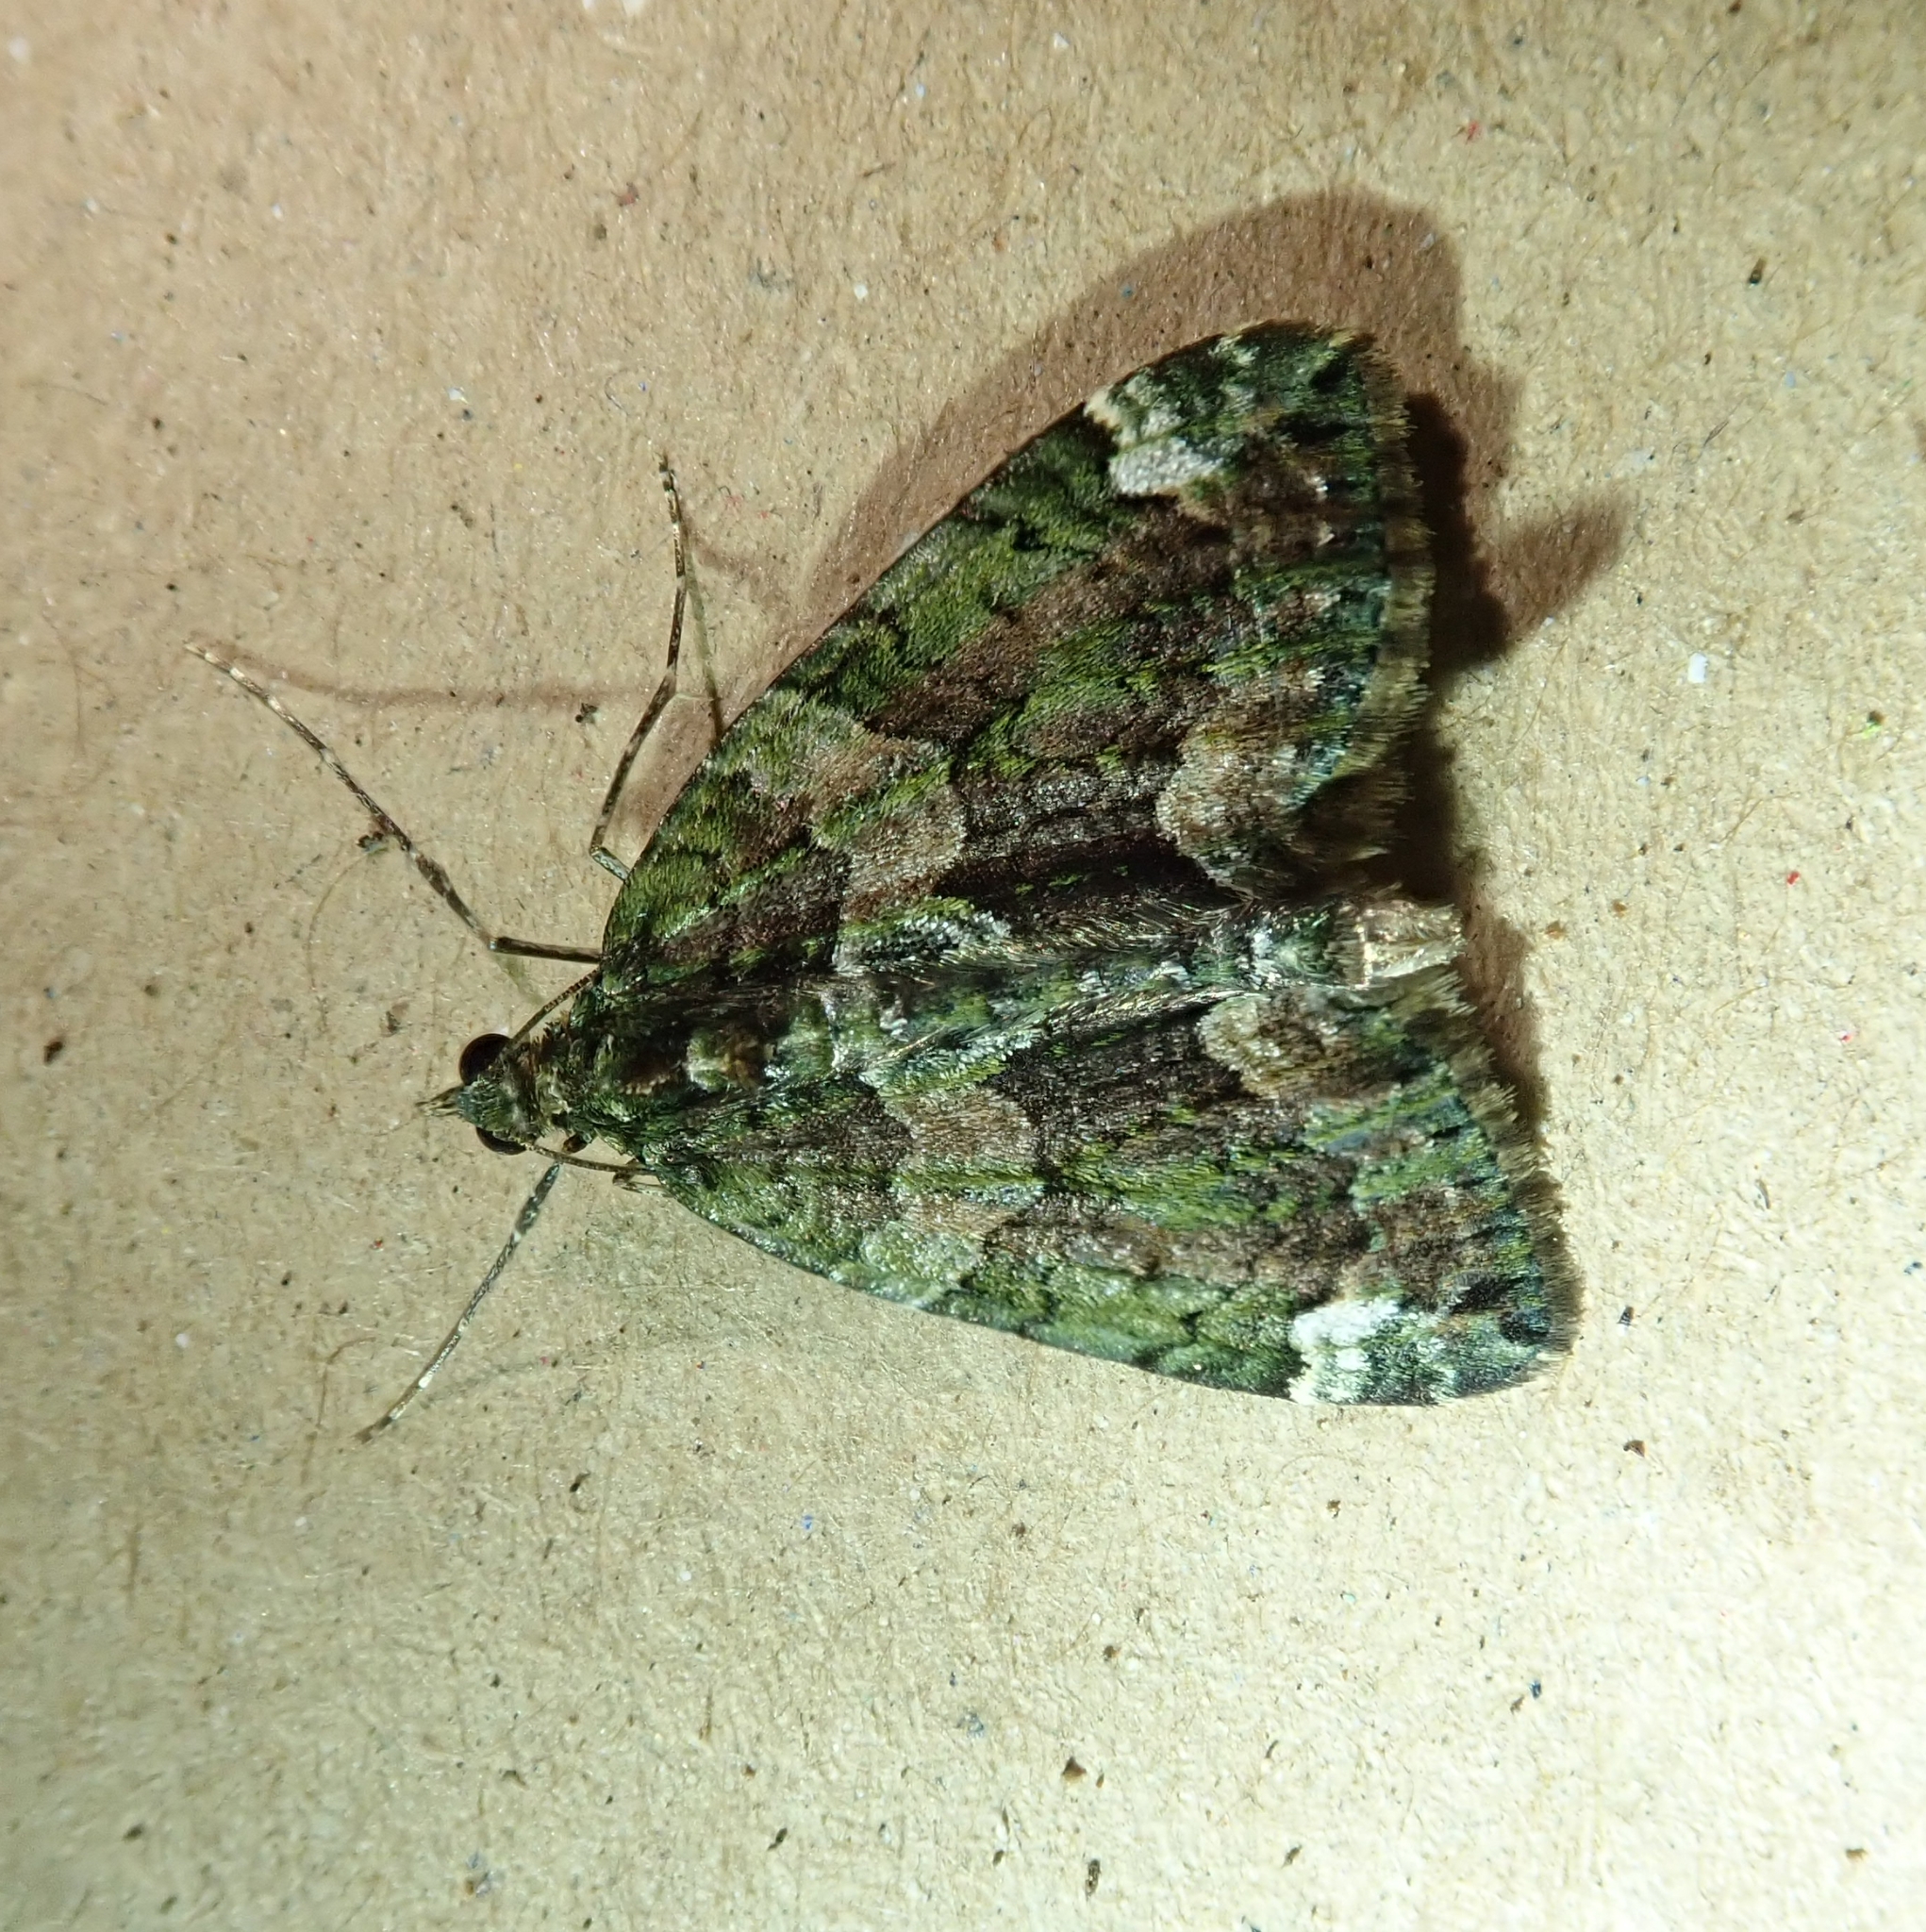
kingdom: Animalia
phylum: Arthropoda
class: Insecta
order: Lepidoptera
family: Geometridae
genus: Chloroclysta
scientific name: Chloroclysta siterata
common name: Red-green carpet
